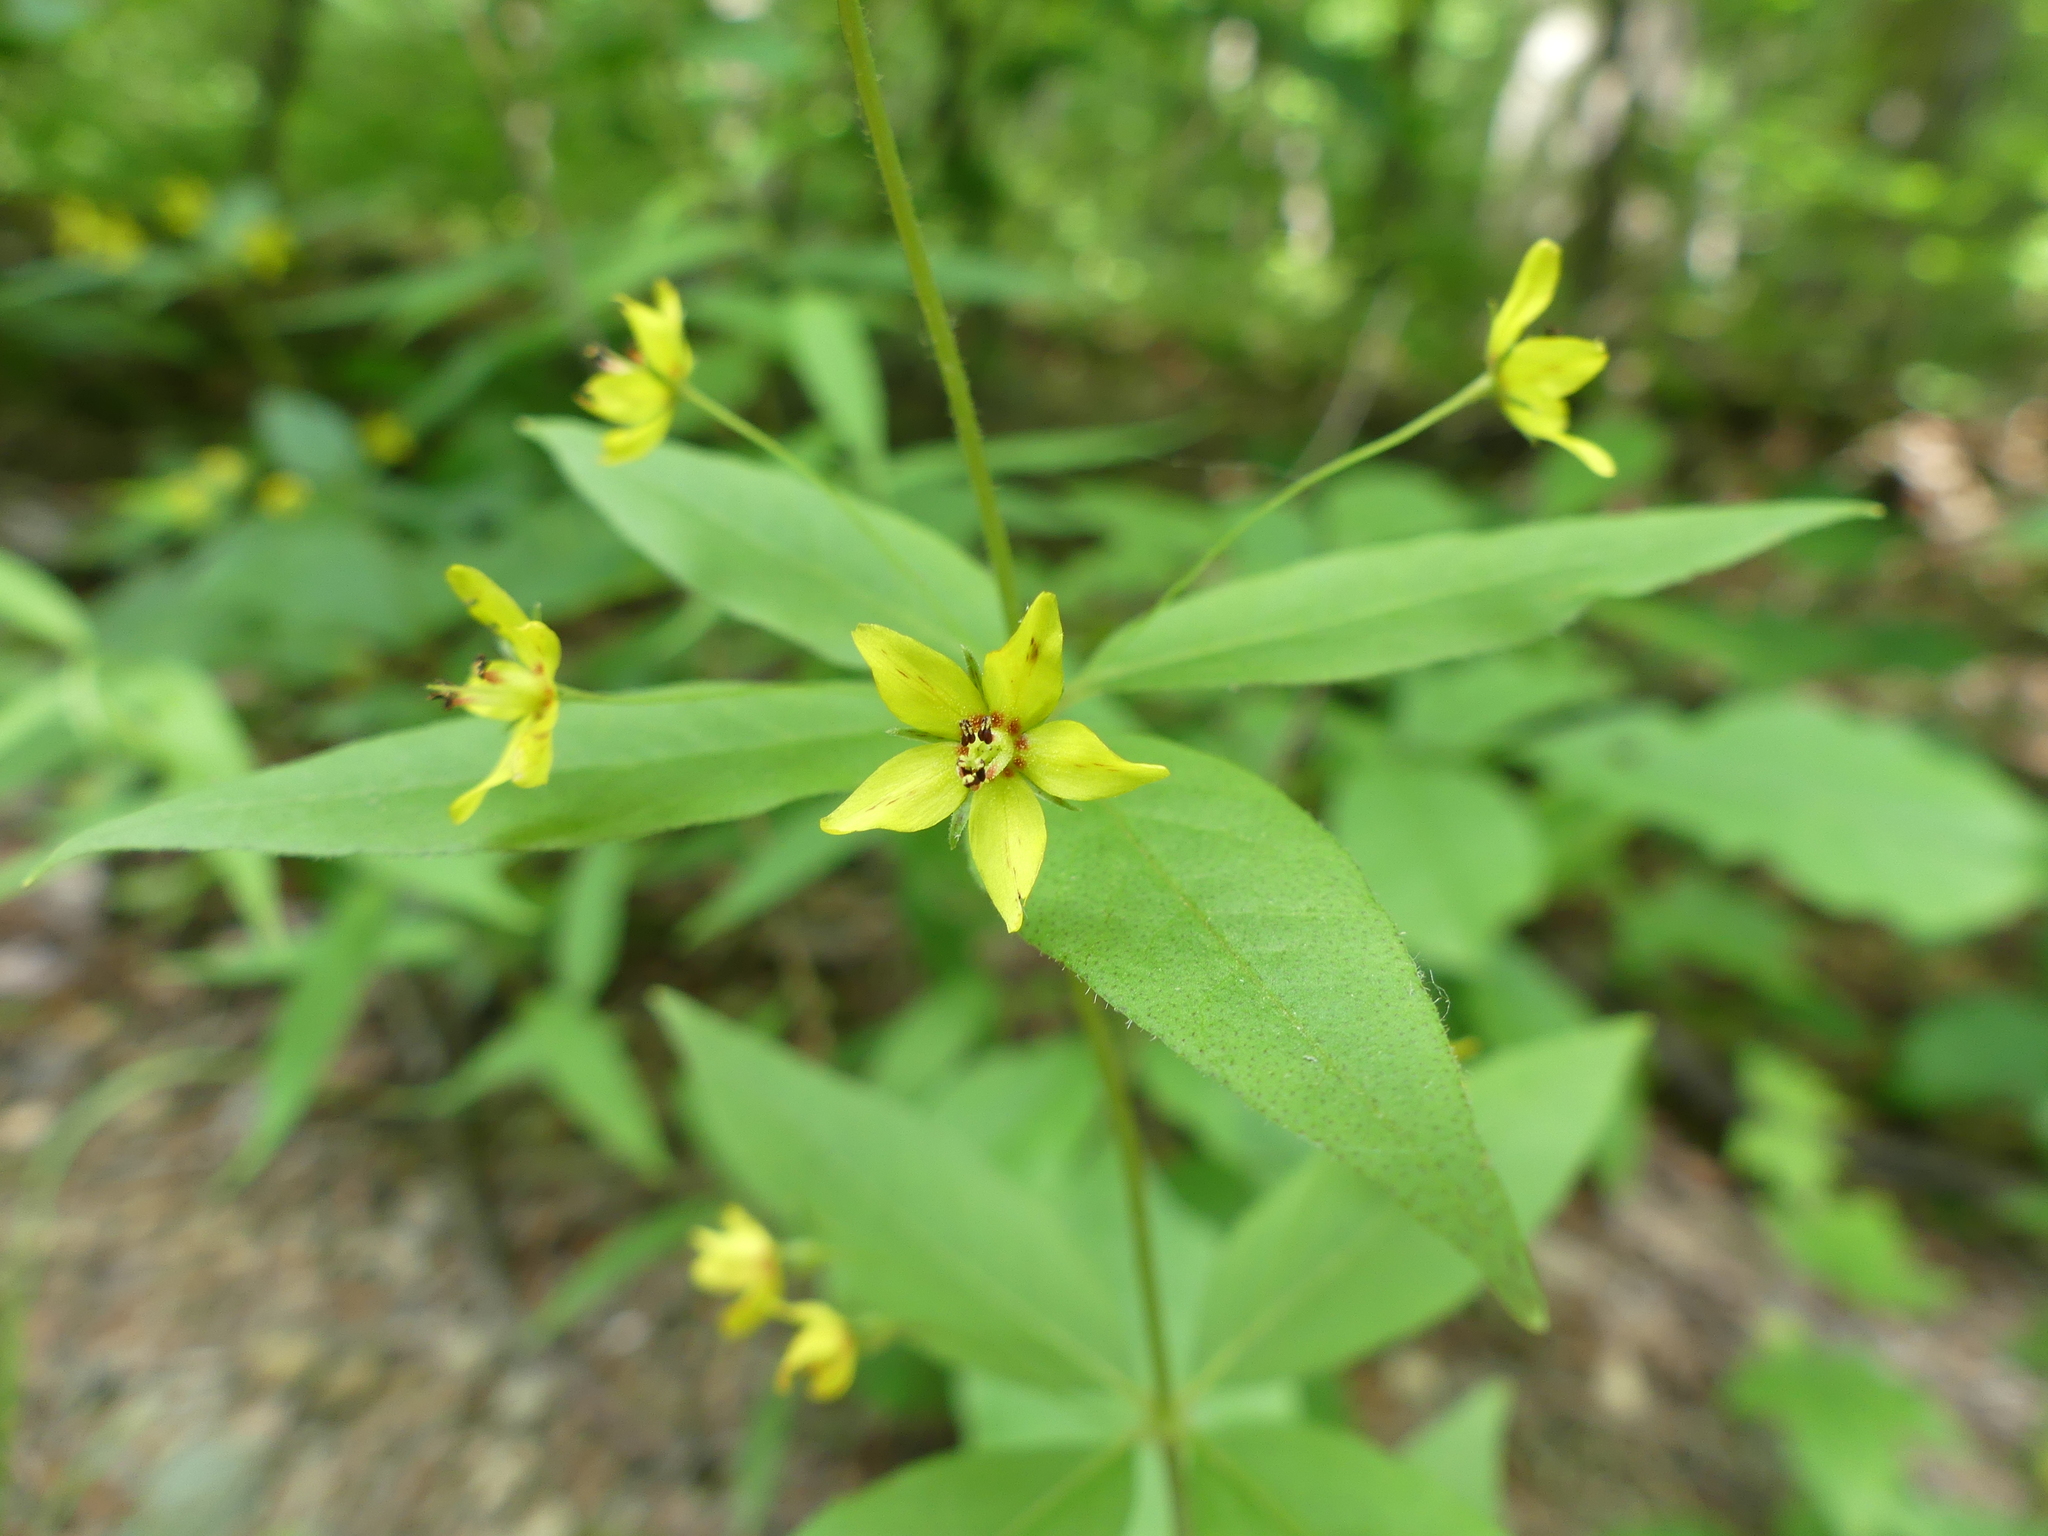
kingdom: Plantae
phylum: Tracheophyta
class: Magnoliopsida
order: Ericales
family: Primulaceae
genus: Lysimachia
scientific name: Lysimachia quadrifolia
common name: Whorled loosestrife
